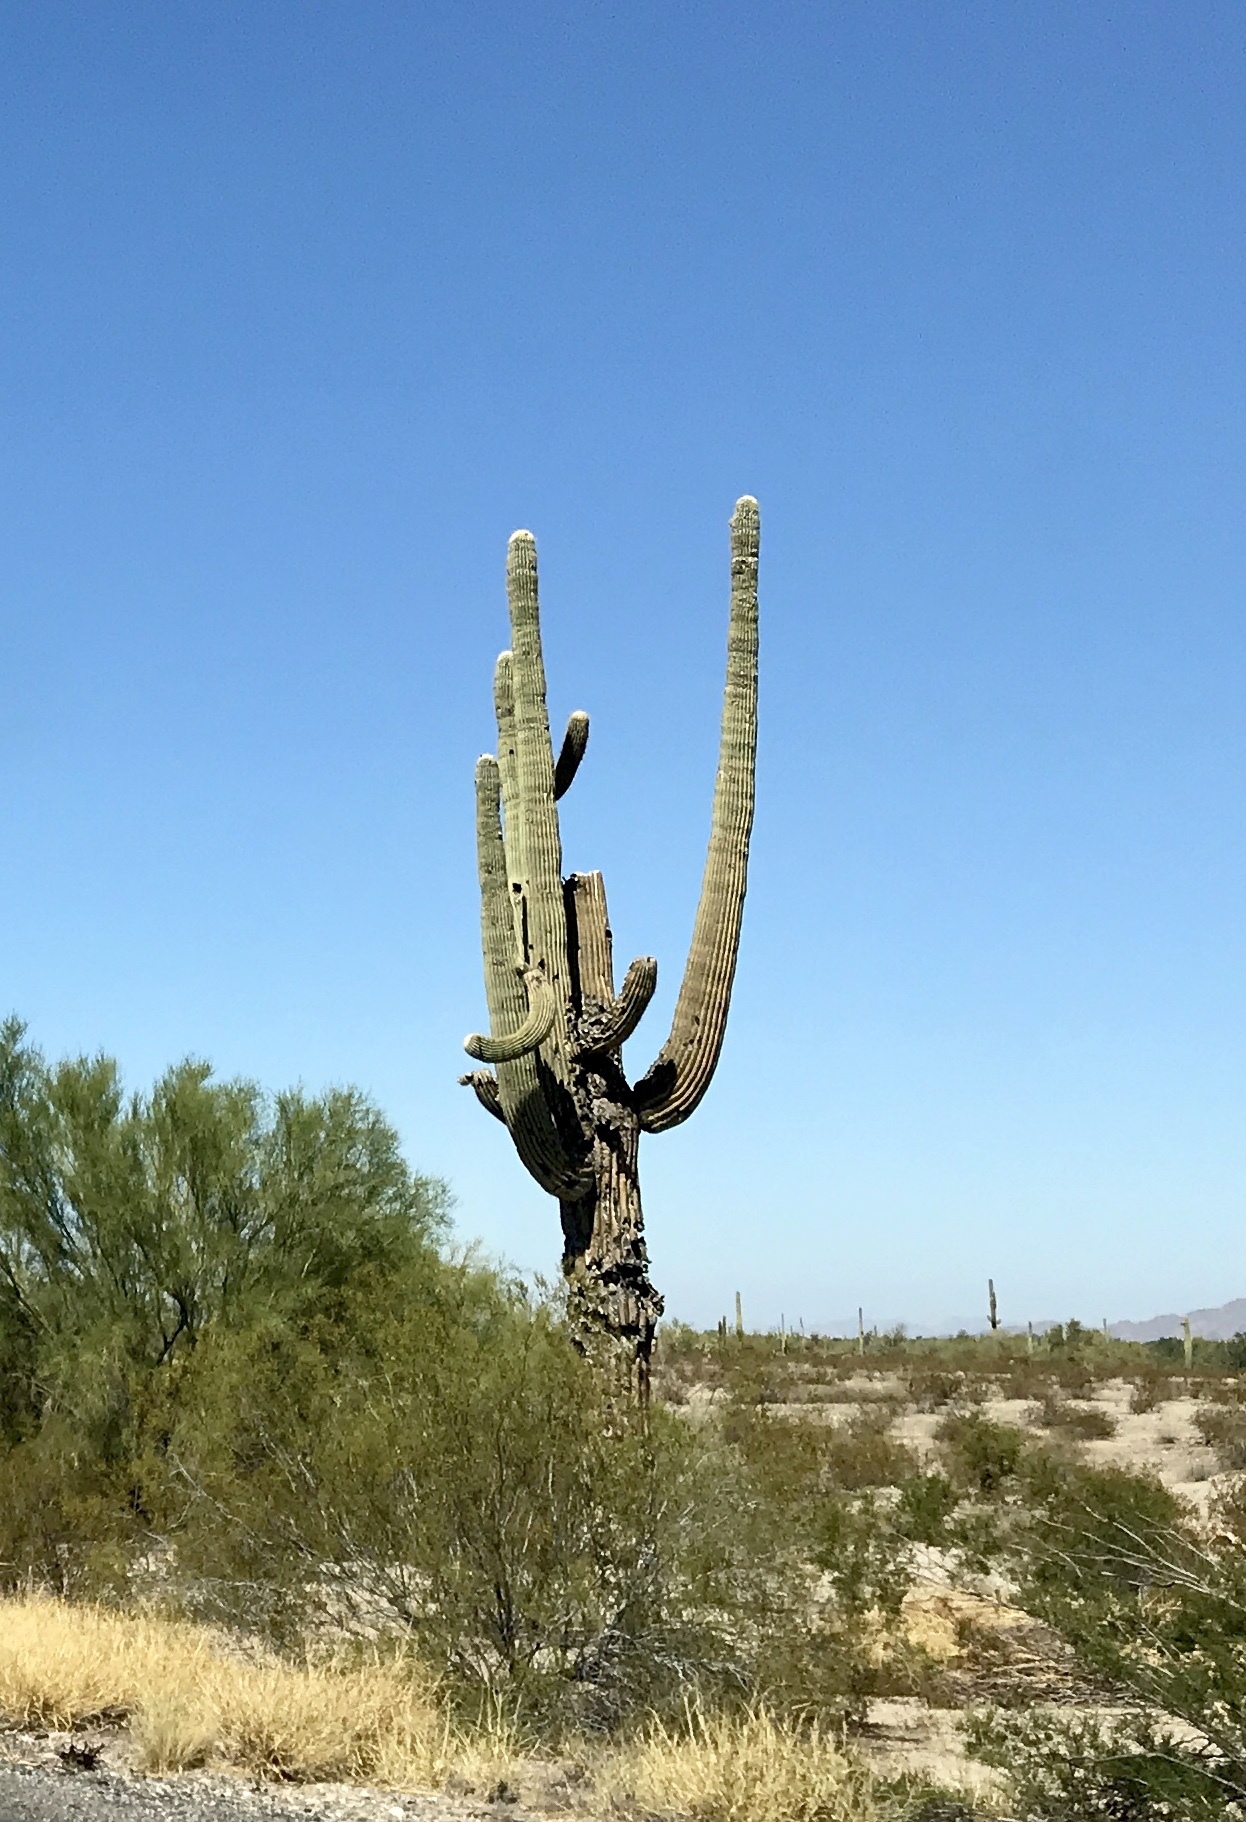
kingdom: Plantae
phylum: Tracheophyta
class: Magnoliopsida
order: Caryophyllales
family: Cactaceae
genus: Carnegiea
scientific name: Carnegiea gigantea
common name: Saguaro
